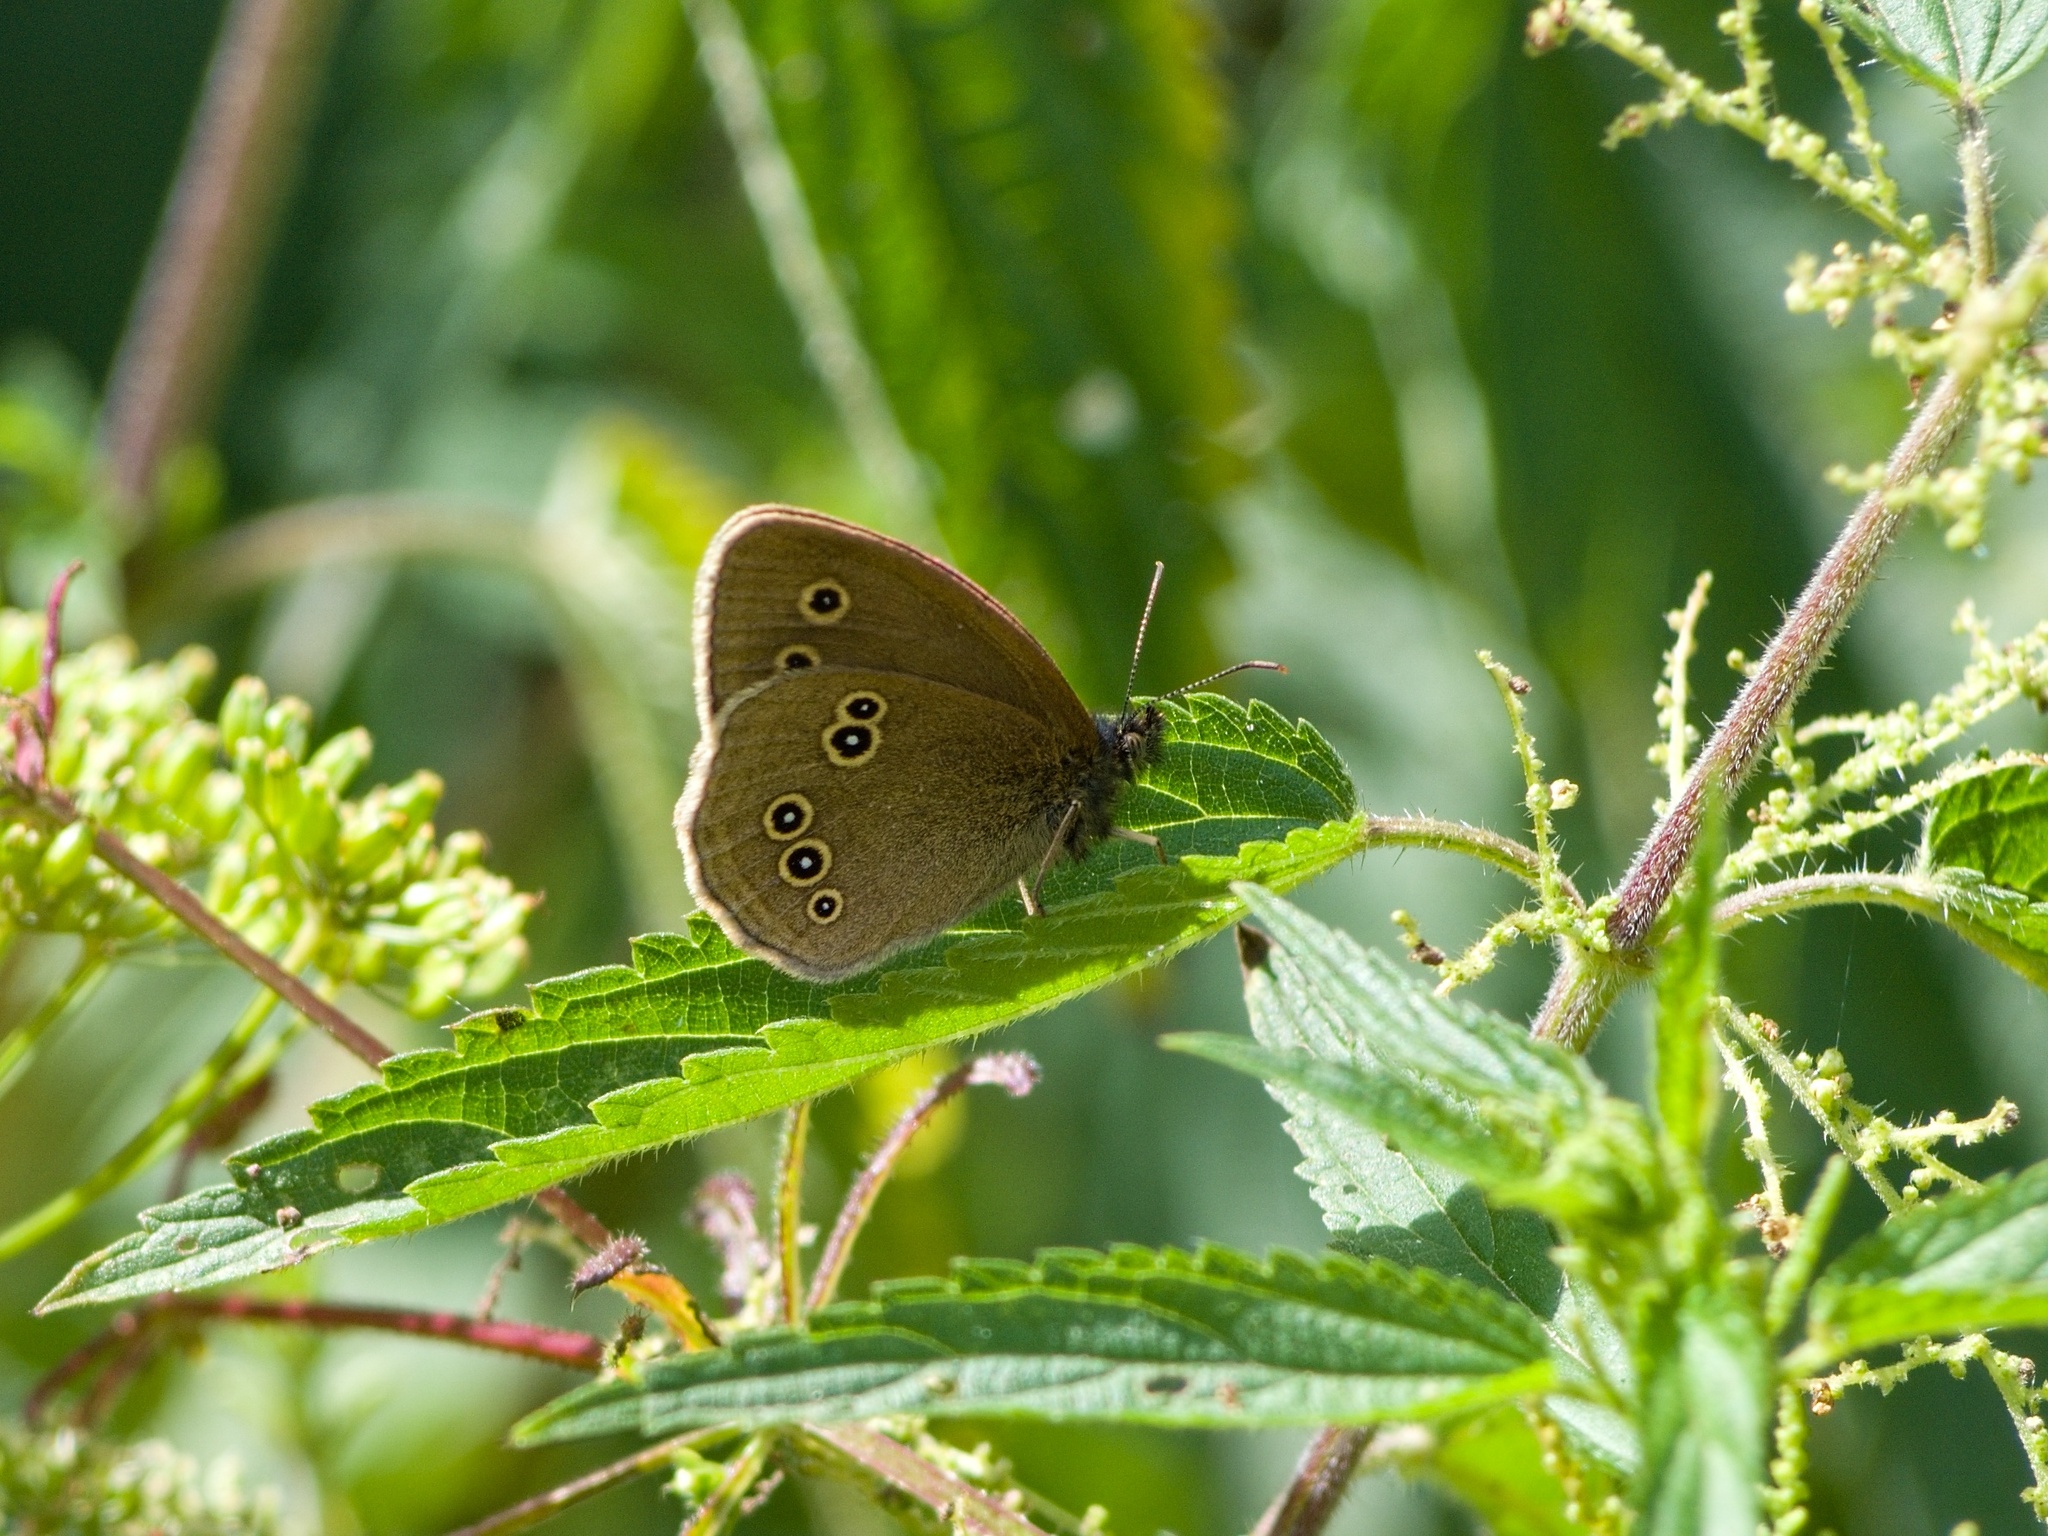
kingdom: Animalia
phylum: Arthropoda
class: Insecta
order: Lepidoptera
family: Nymphalidae
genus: Aphantopus
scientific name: Aphantopus hyperantus
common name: Ringlet
